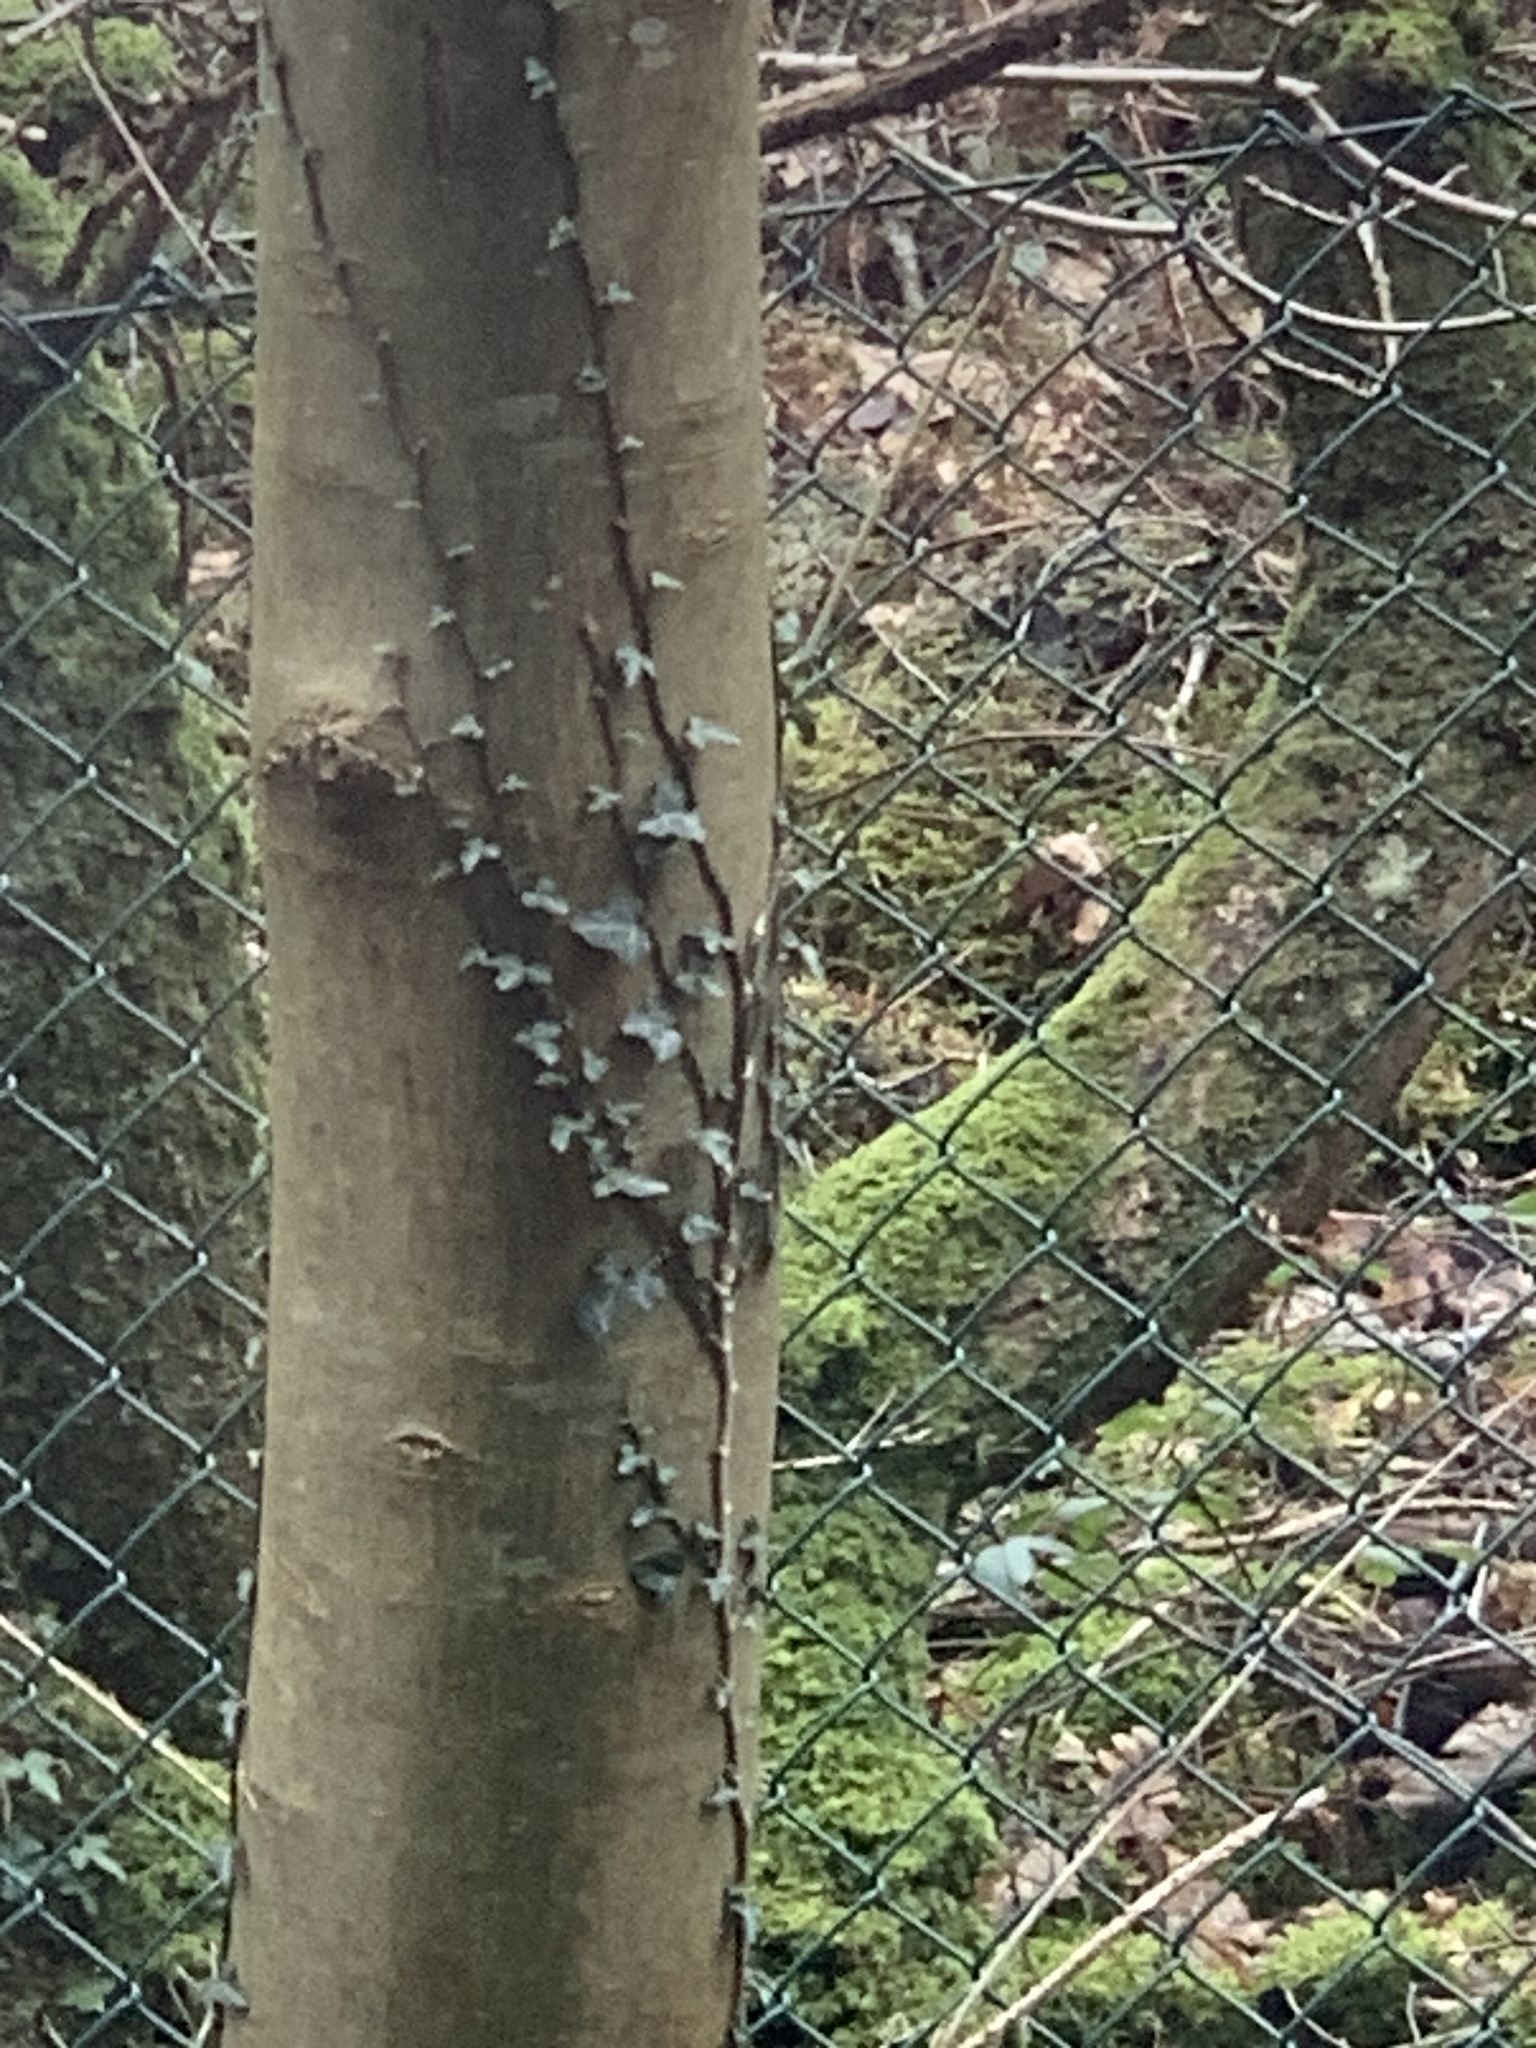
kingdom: Plantae
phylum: Tracheophyta
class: Magnoliopsida
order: Apiales
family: Araliaceae
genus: Hedera
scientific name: Hedera helix
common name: Ivy
